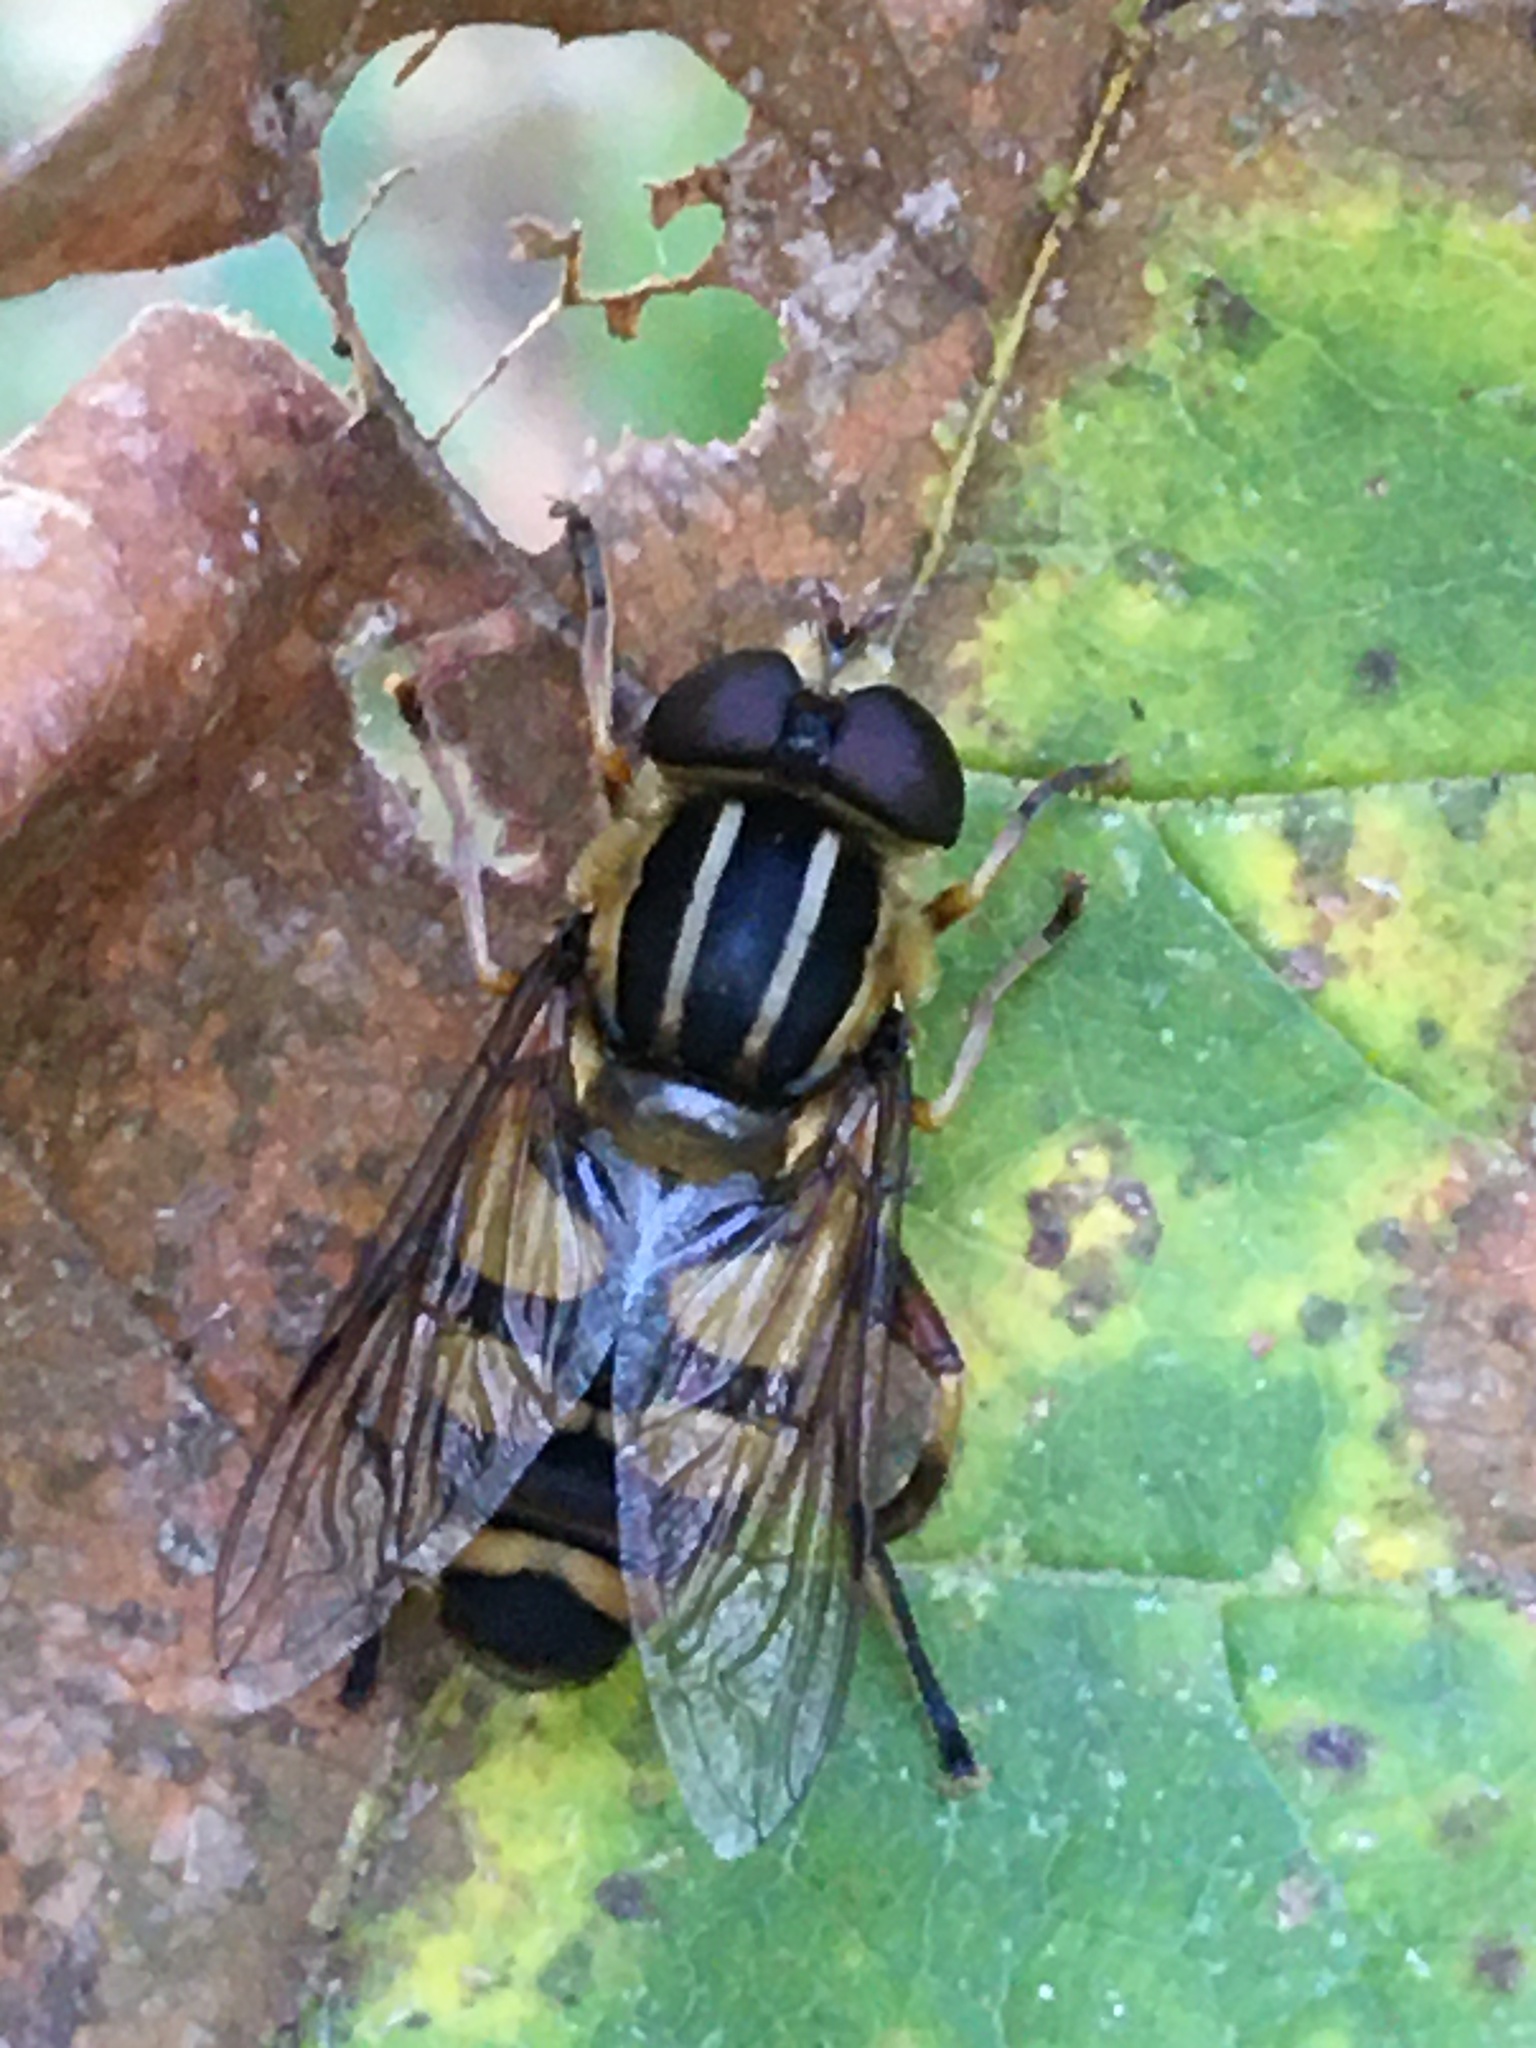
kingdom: Animalia
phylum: Arthropoda
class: Insecta
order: Diptera
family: Syrphidae
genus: Helophilus
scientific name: Helophilus fasciatus
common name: Narrow-headed marsh fly
